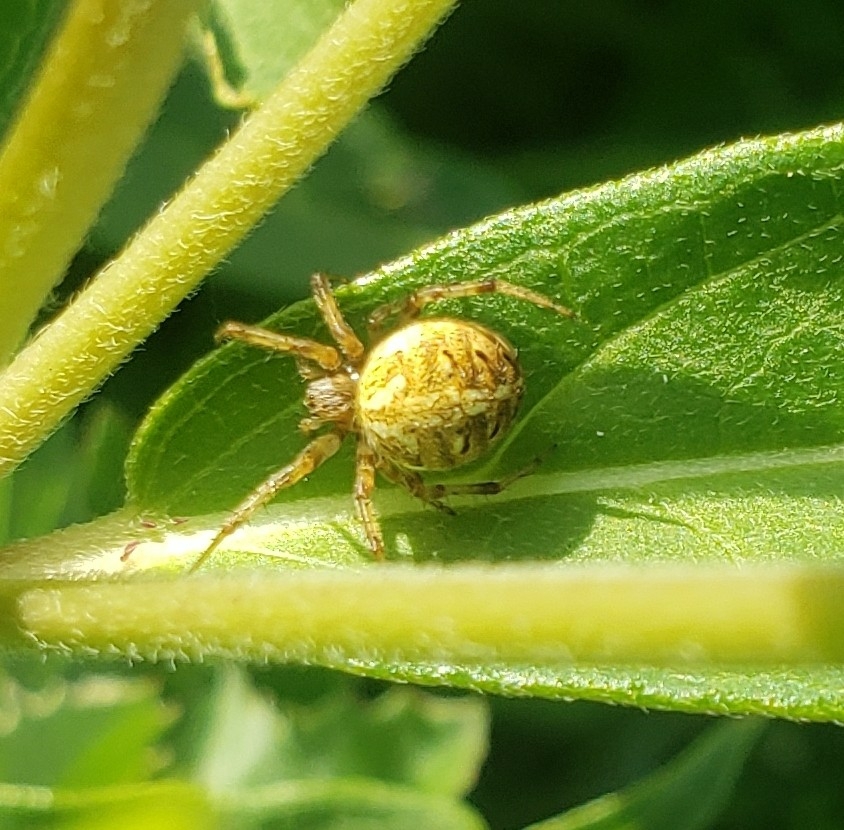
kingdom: Animalia
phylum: Arthropoda
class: Arachnida
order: Araneae
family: Araneidae
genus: Neoscona
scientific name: Neoscona arabesca
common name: Orb weavers
